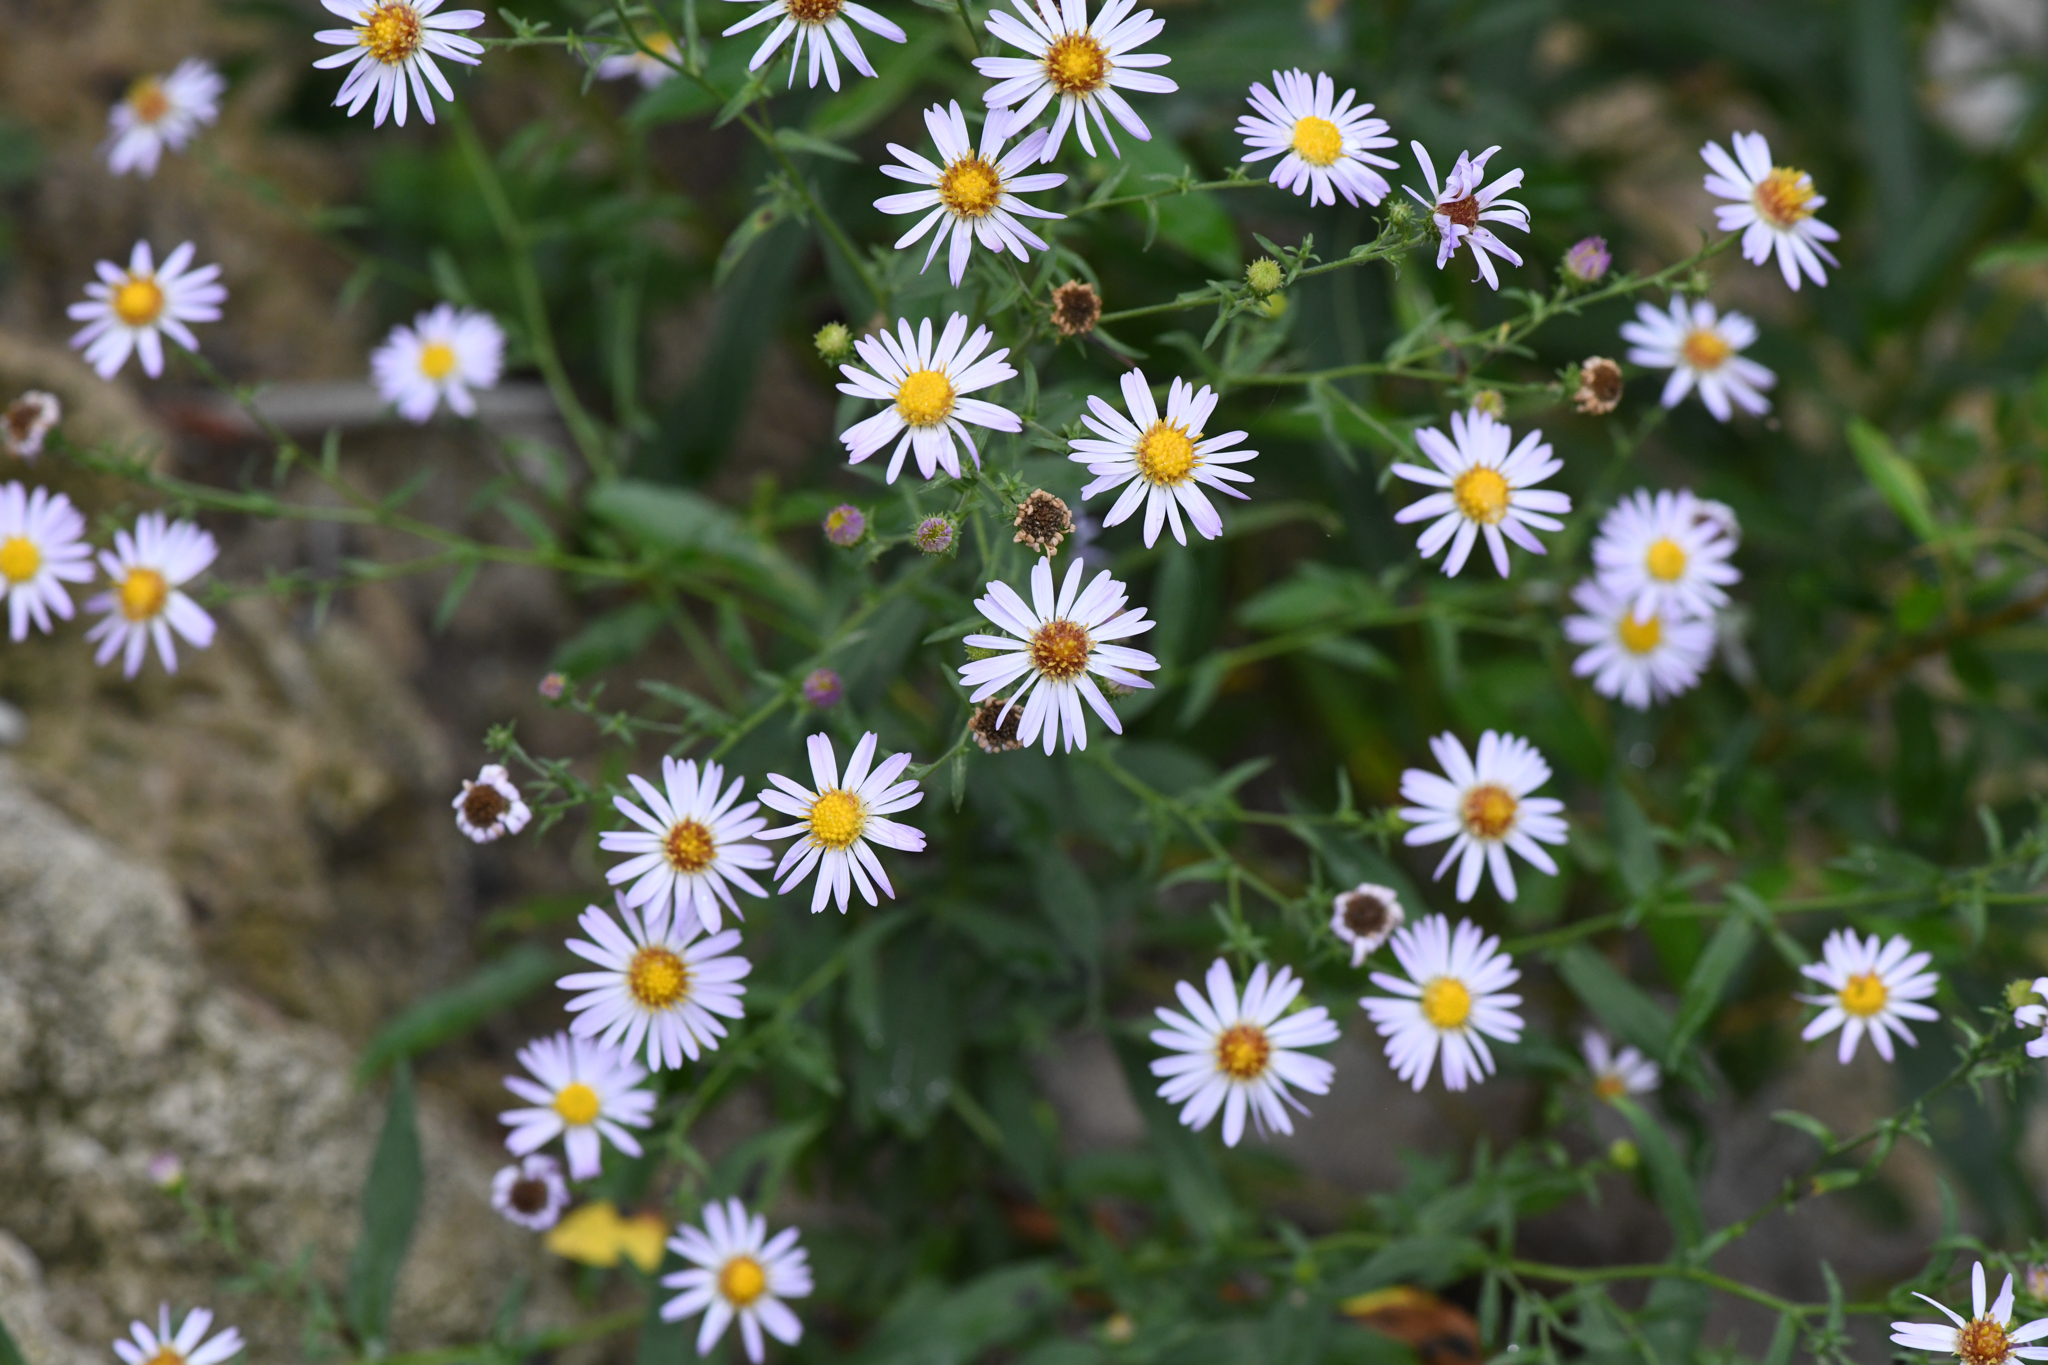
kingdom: Plantae
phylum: Tracheophyta
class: Magnoliopsida
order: Asterales
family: Asteraceae
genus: Symphyotrichum
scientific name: Symphyotrichum greatae
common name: Greata's aster
